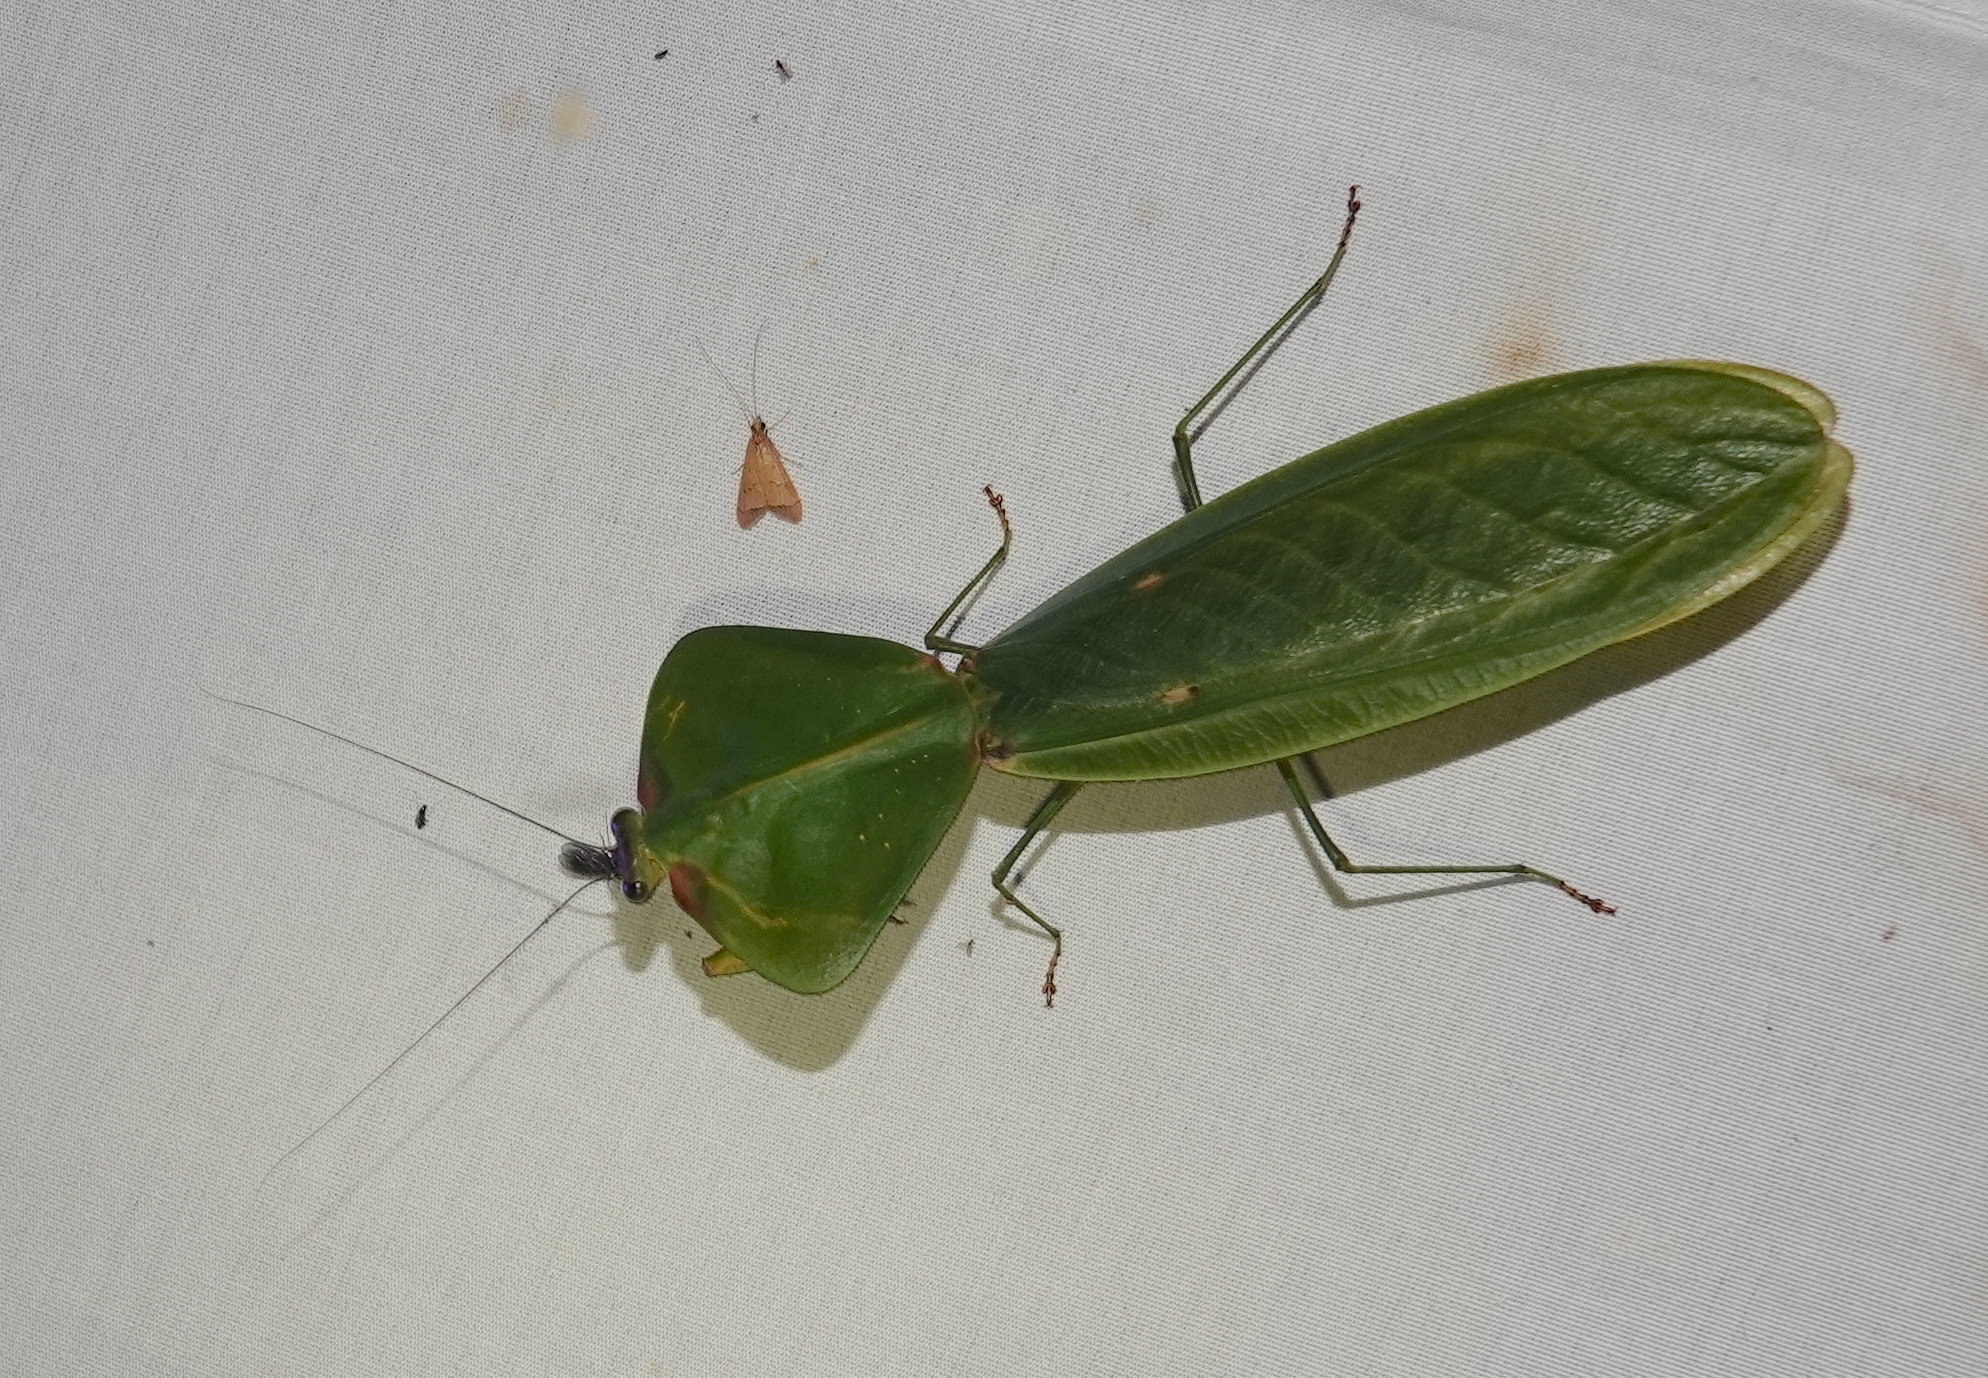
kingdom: Animalia
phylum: Arthropoda
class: Insecta
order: Mantodea
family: Mantidae
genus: Choeradodis
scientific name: Choeradodis columbica
